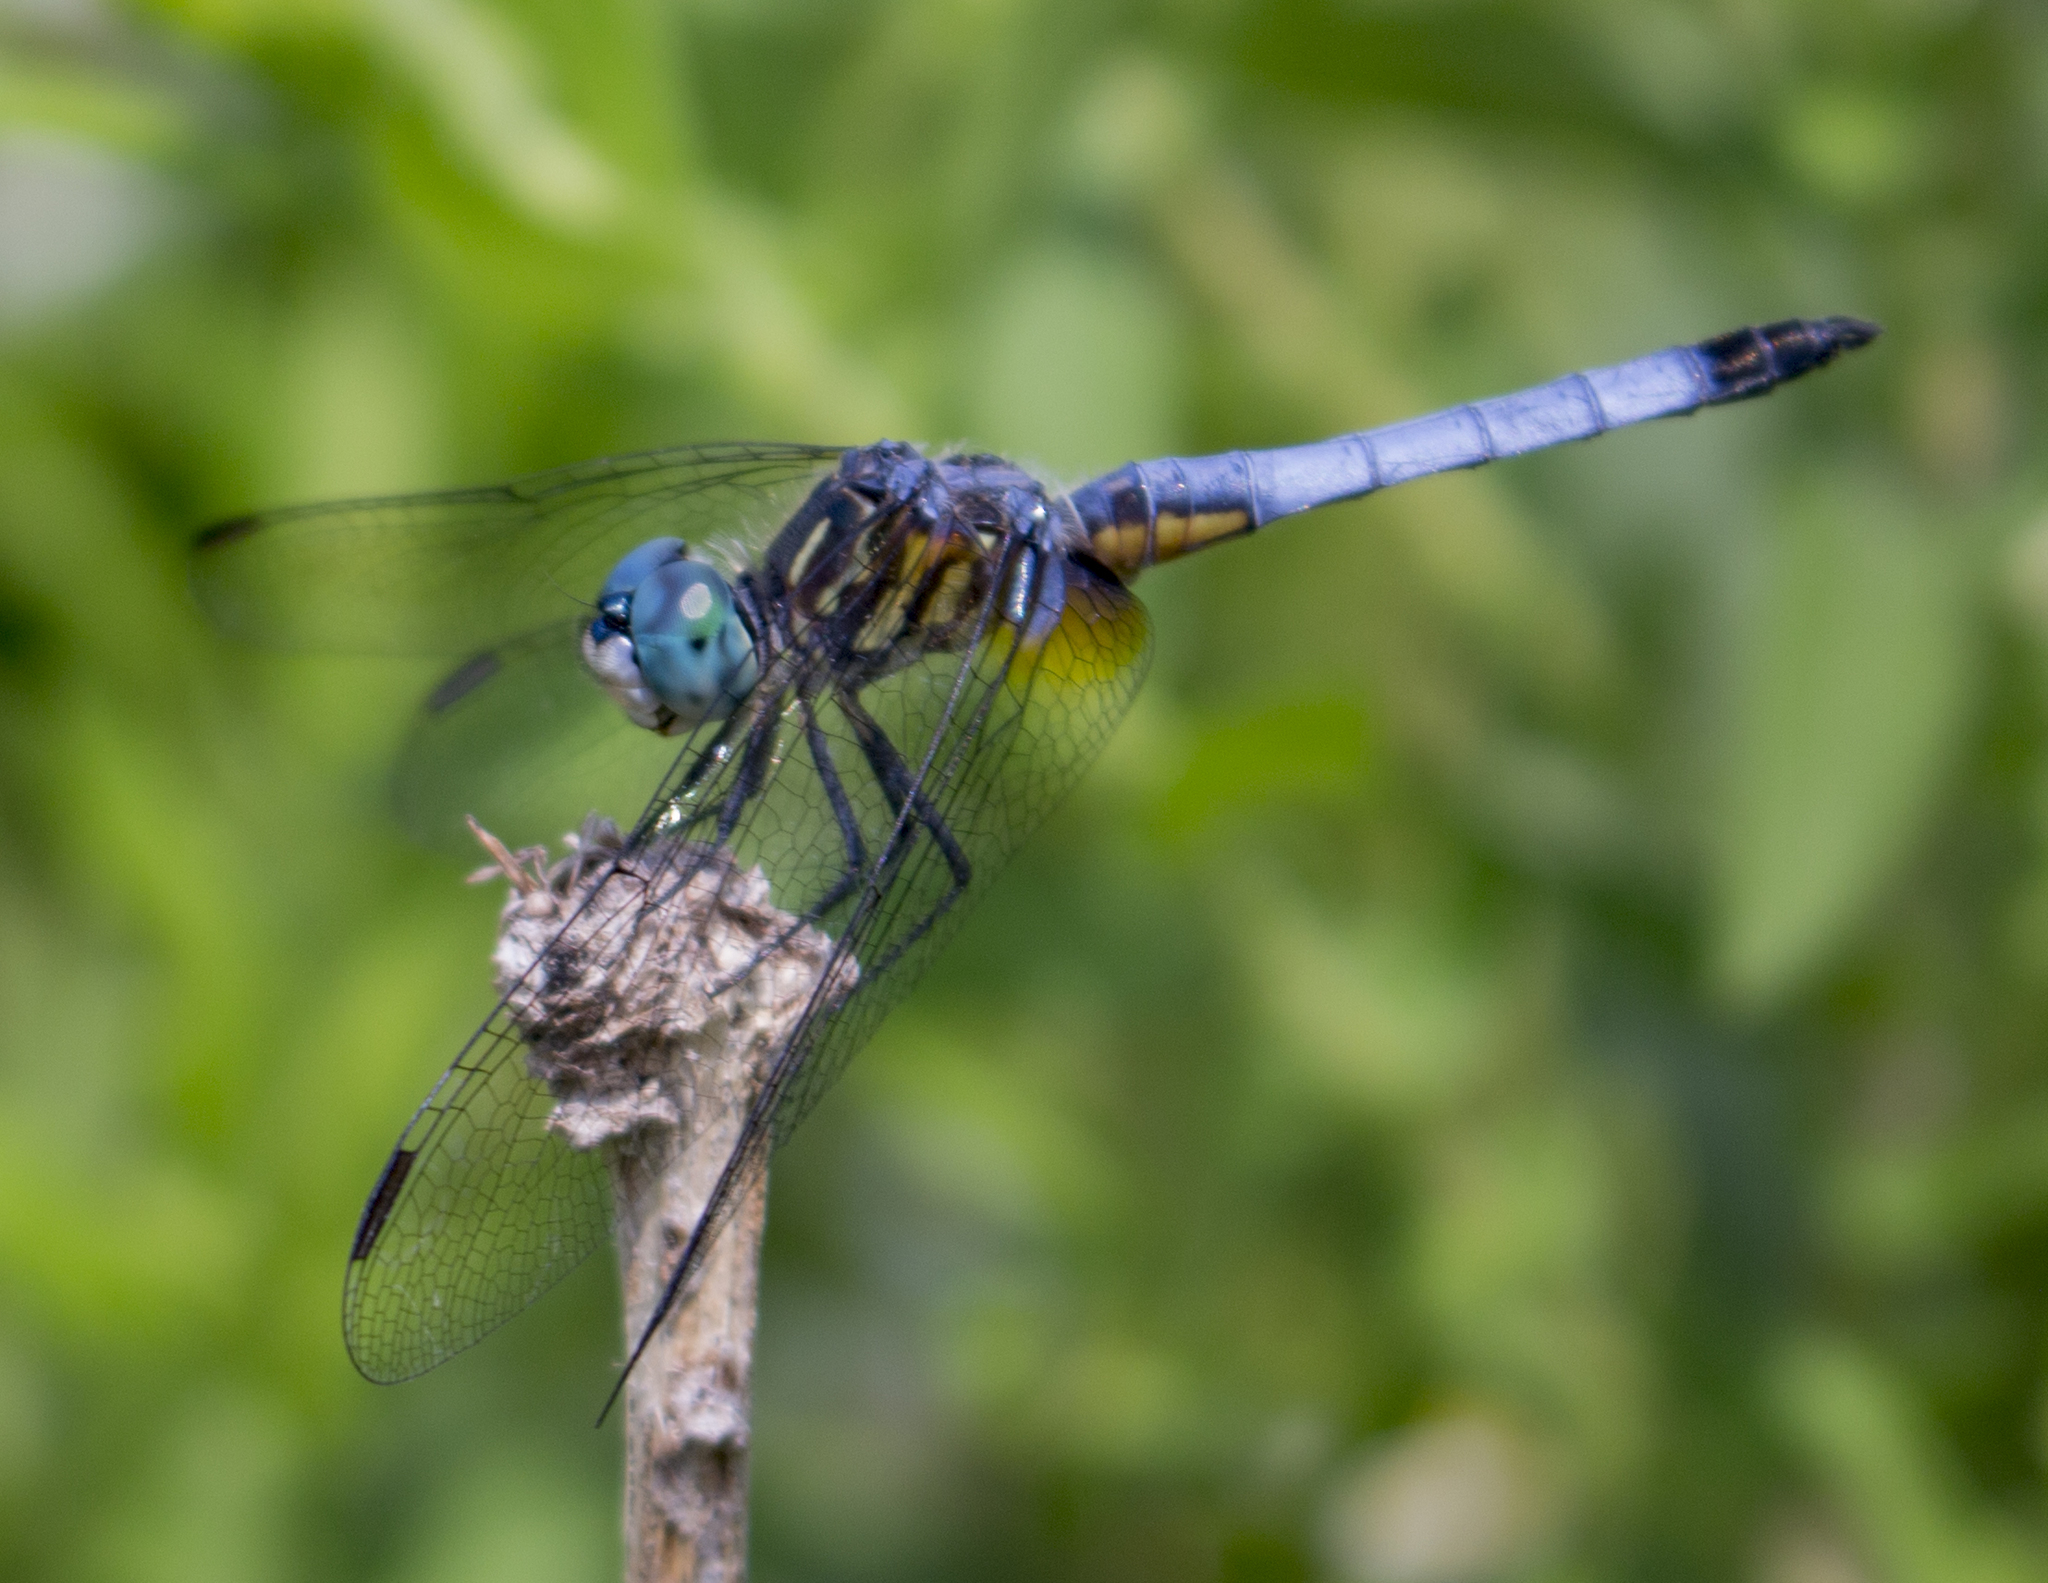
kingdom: Animalia
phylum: Arthropoda
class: Insecta
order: Odonata
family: Libellulidae
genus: Pachydiplax
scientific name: Pachydiplax longipennis
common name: Blue dasher
